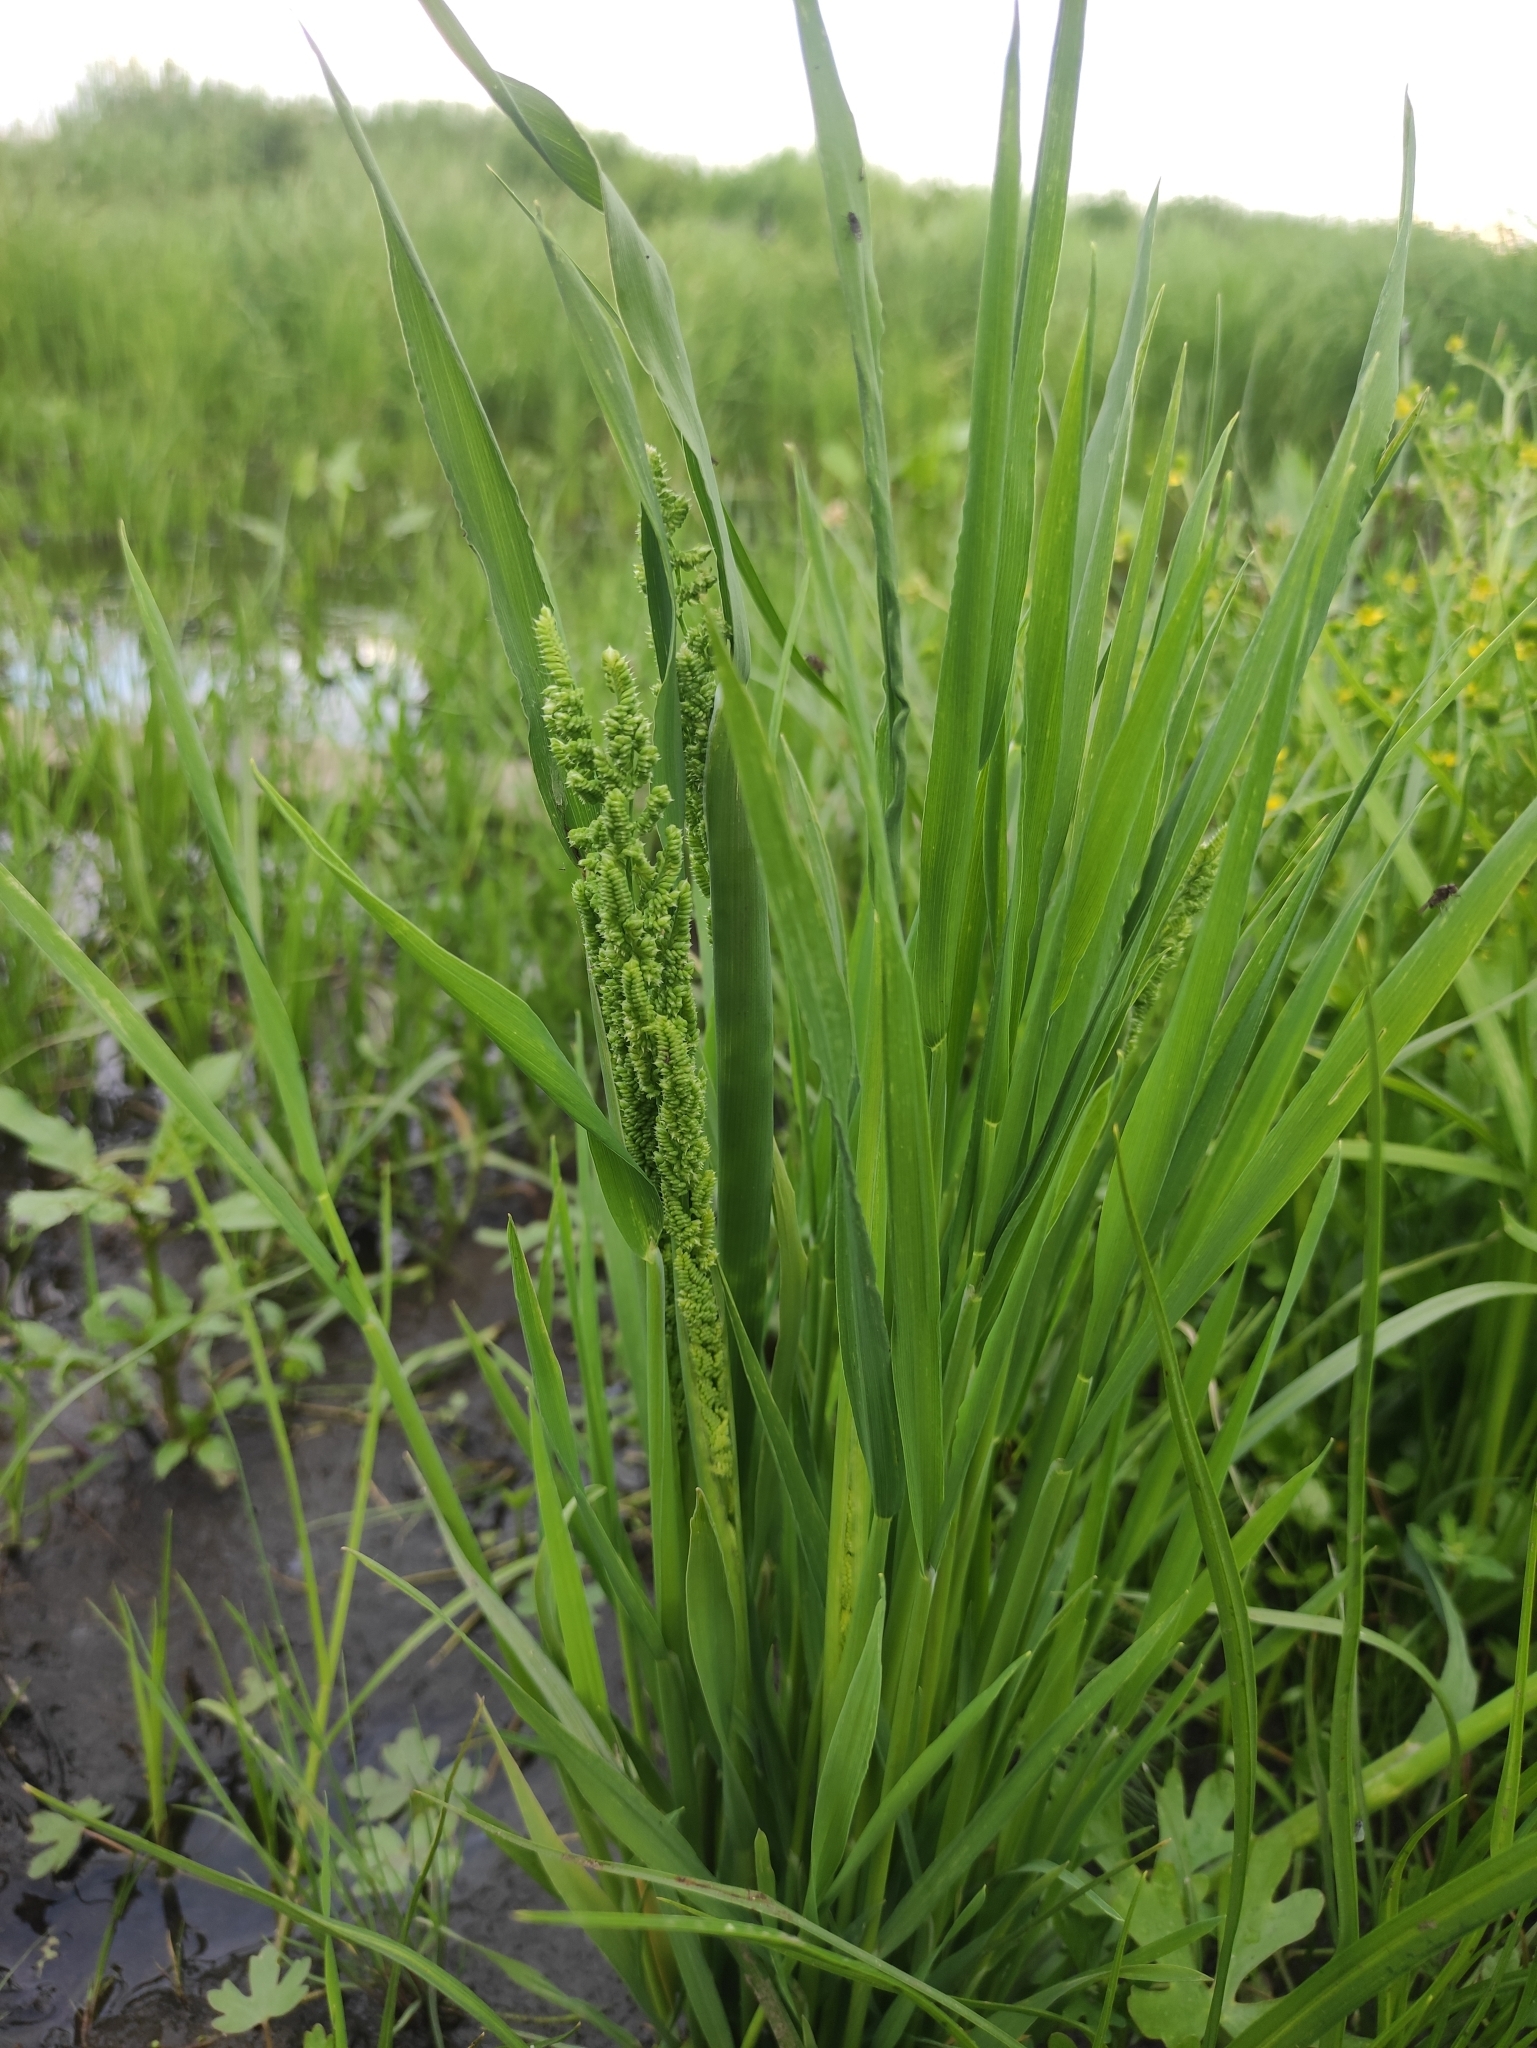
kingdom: Plantae
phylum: Tracheophyta
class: Liliopsida
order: Poales
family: Poaceae
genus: Beckmannia
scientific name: Beckmannia syzigachne
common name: American slough-grass
